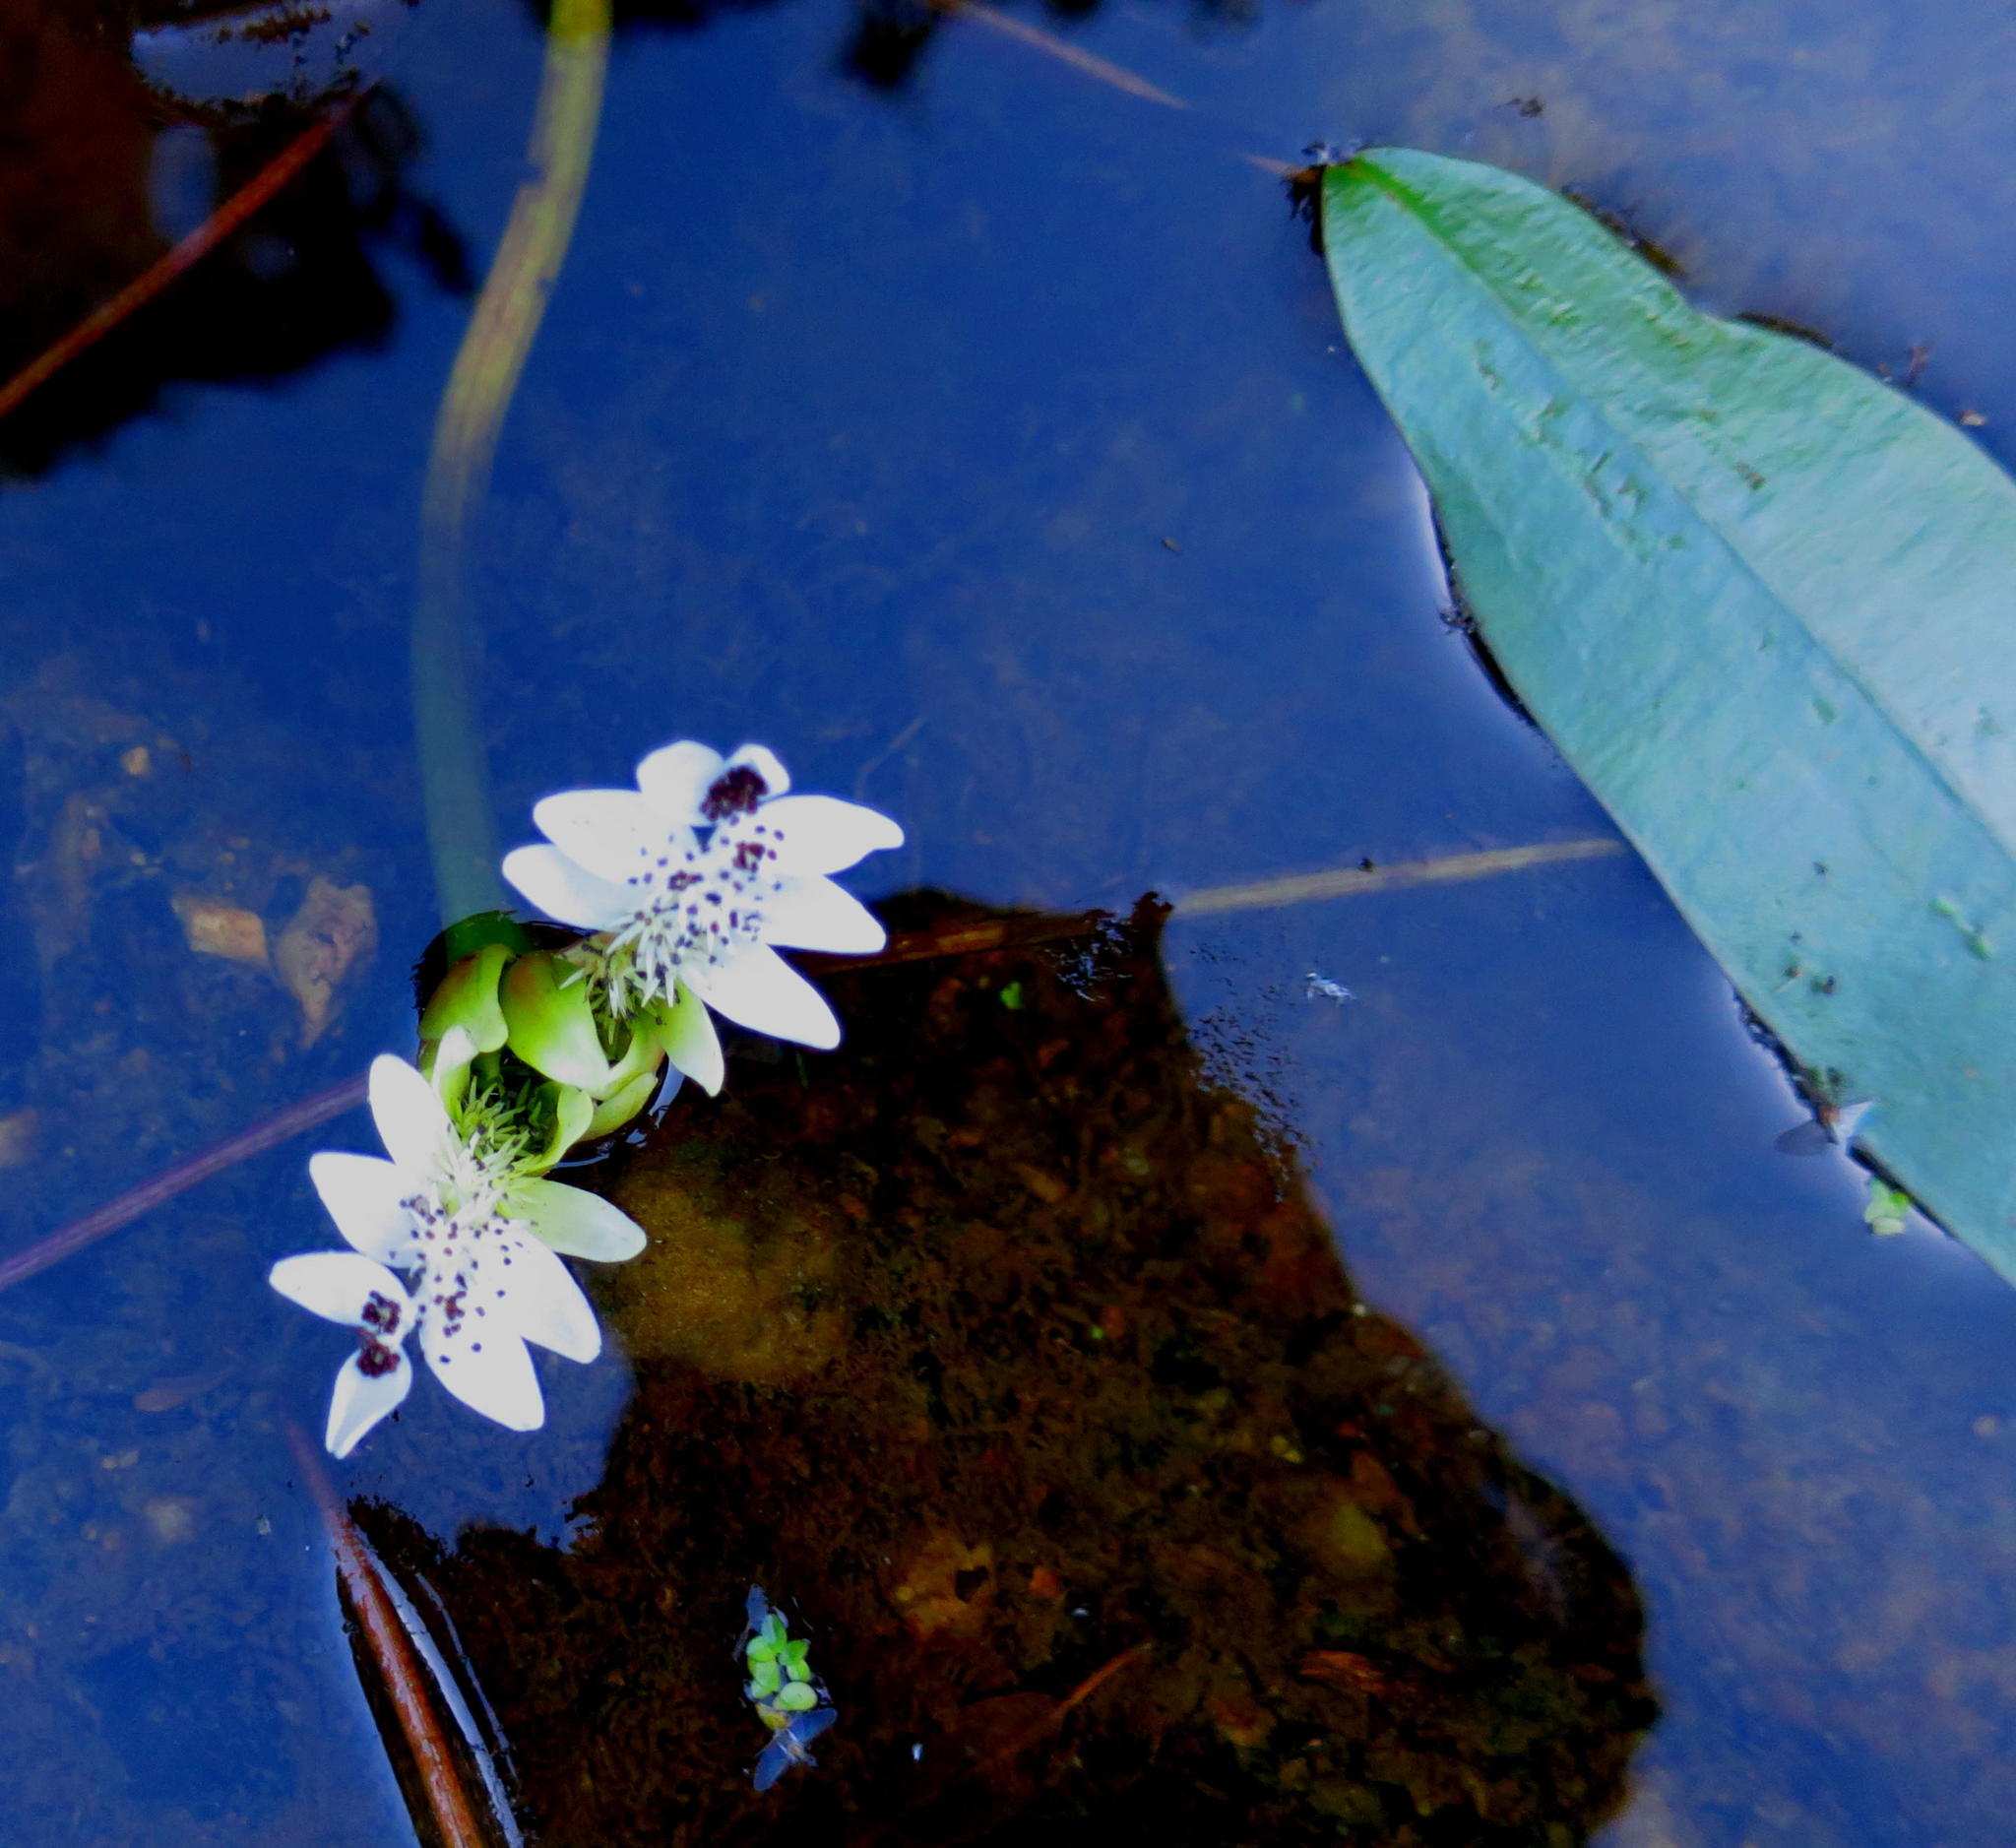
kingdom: Plantae
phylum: Tracheophyta
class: Liliopsida
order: Alismatales
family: Aponogetonaceae
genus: Aponogeton
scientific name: Aponogeton distachyos
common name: Cape-pondweed
